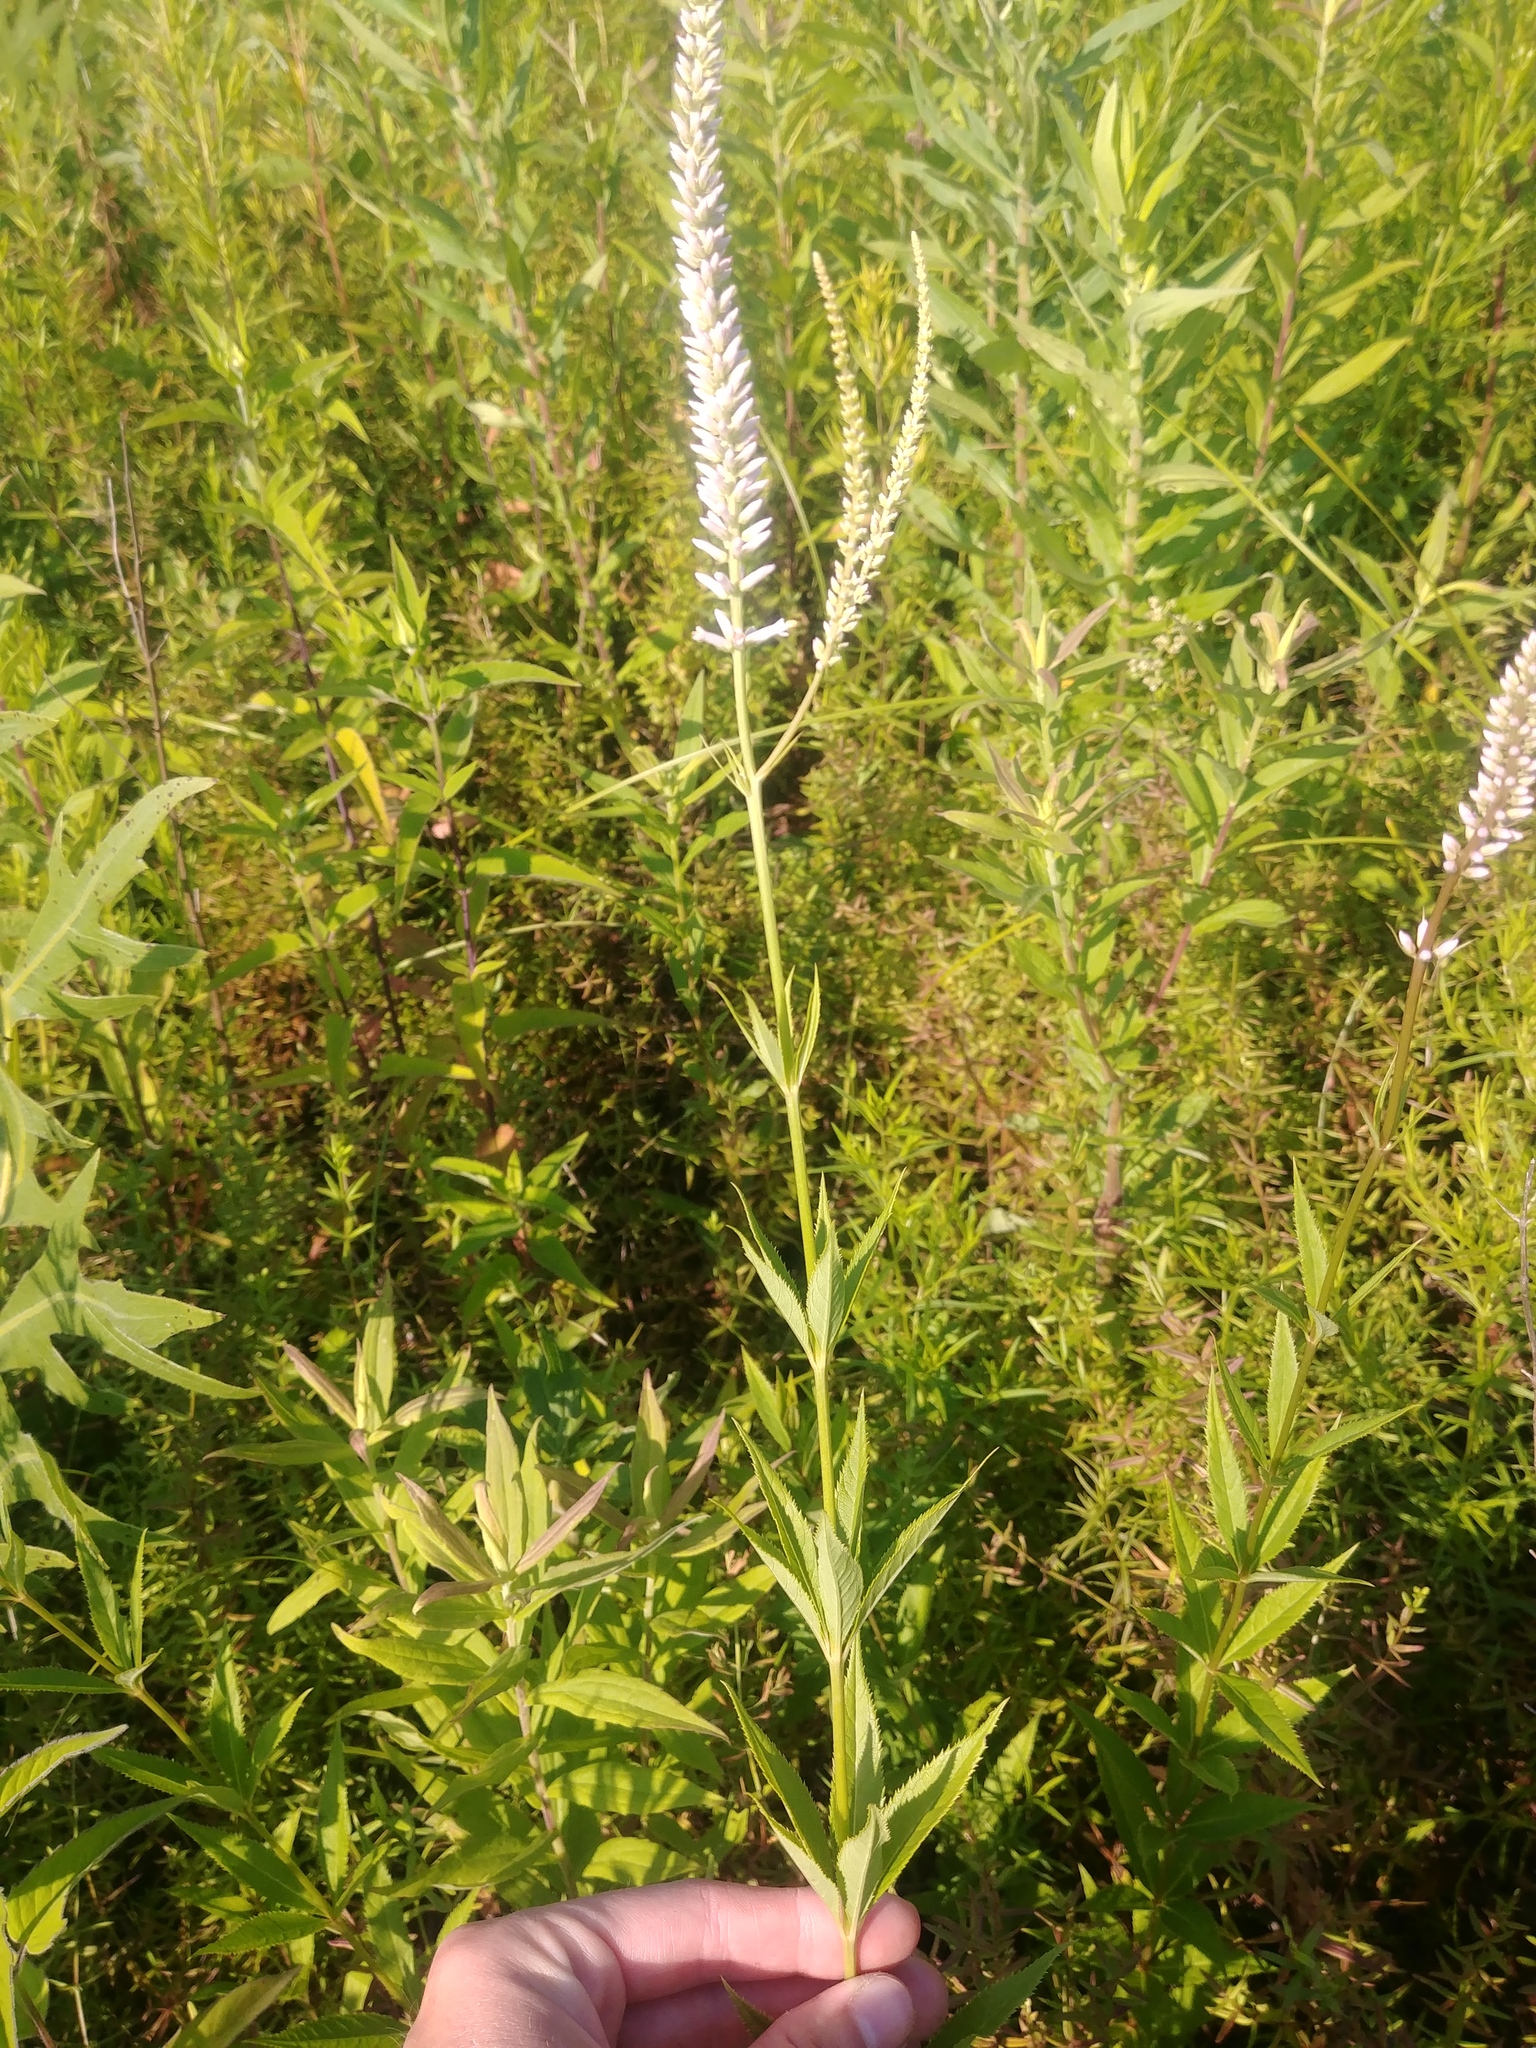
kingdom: Plantae
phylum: Tracheophyta
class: Magnoliopsida
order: Lamiales
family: Plantaginaceae
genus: Veronicastrum
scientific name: Veronicastrum virginicum
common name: Blackroot
